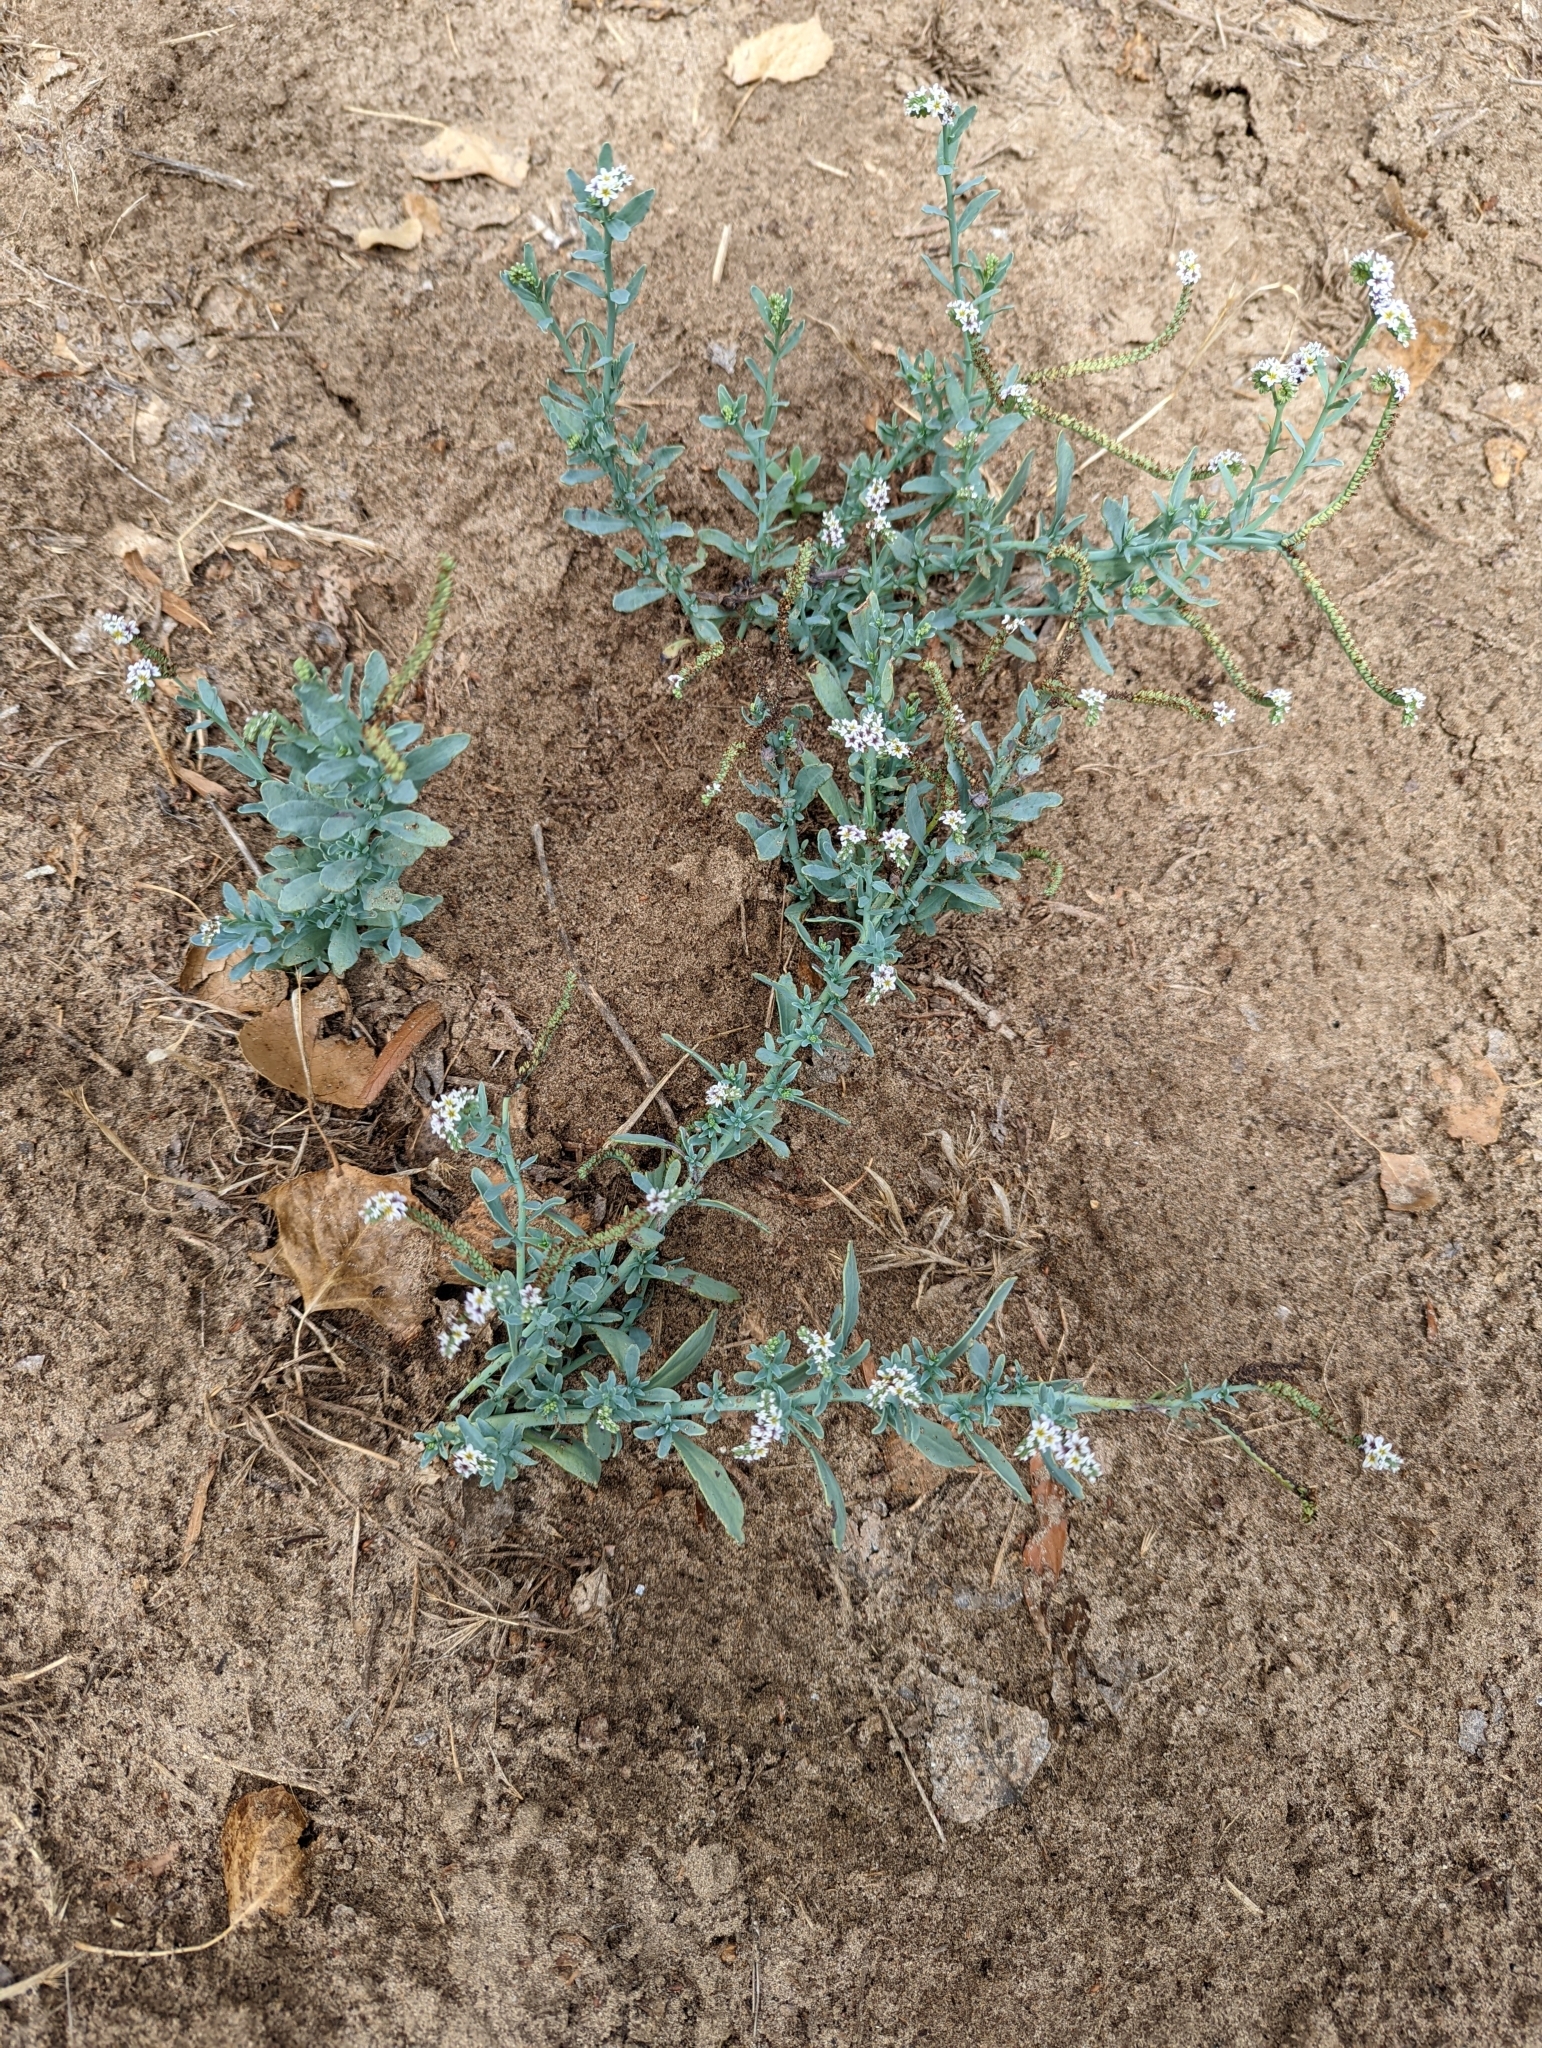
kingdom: Plantae
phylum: Tracheophyta
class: Magnoliopsida
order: Boraginales
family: Heliotropiaceae
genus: Heliotropium
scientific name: Heliotropium curassavicum
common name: Seaside heliotrope
